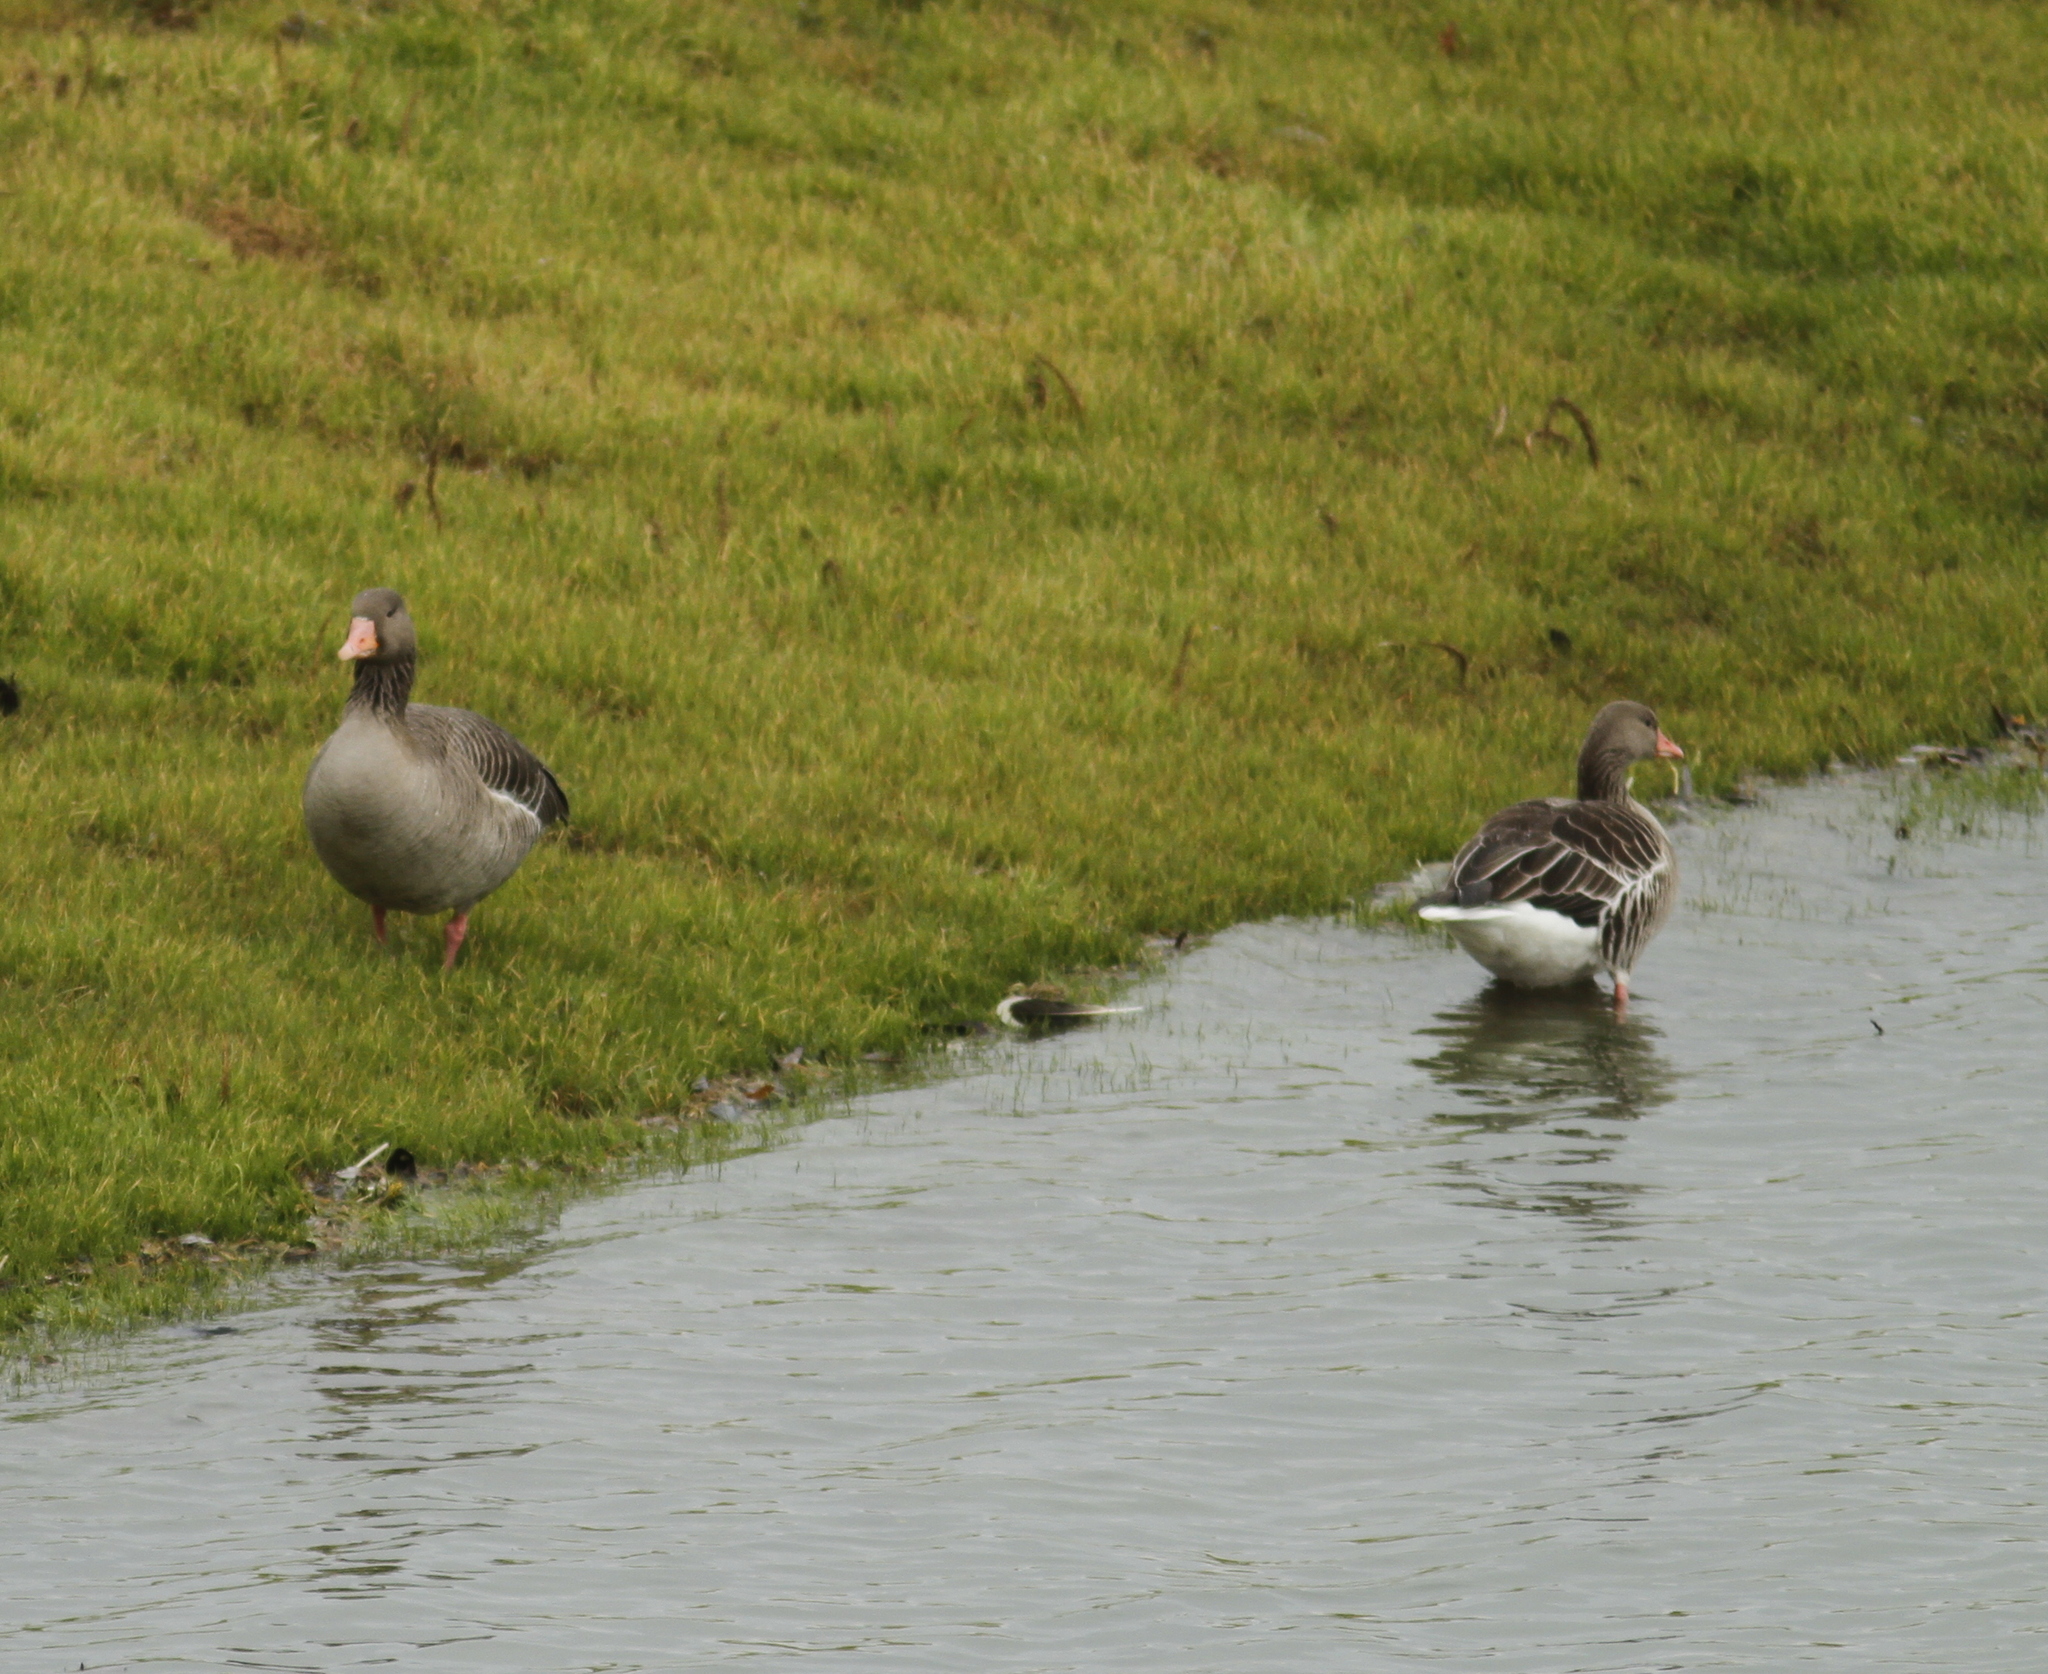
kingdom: Animalia
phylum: Chordata
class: Aves
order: Anseriformes
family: Anatidae
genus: Anser
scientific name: Anser anser
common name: Greylag goose
